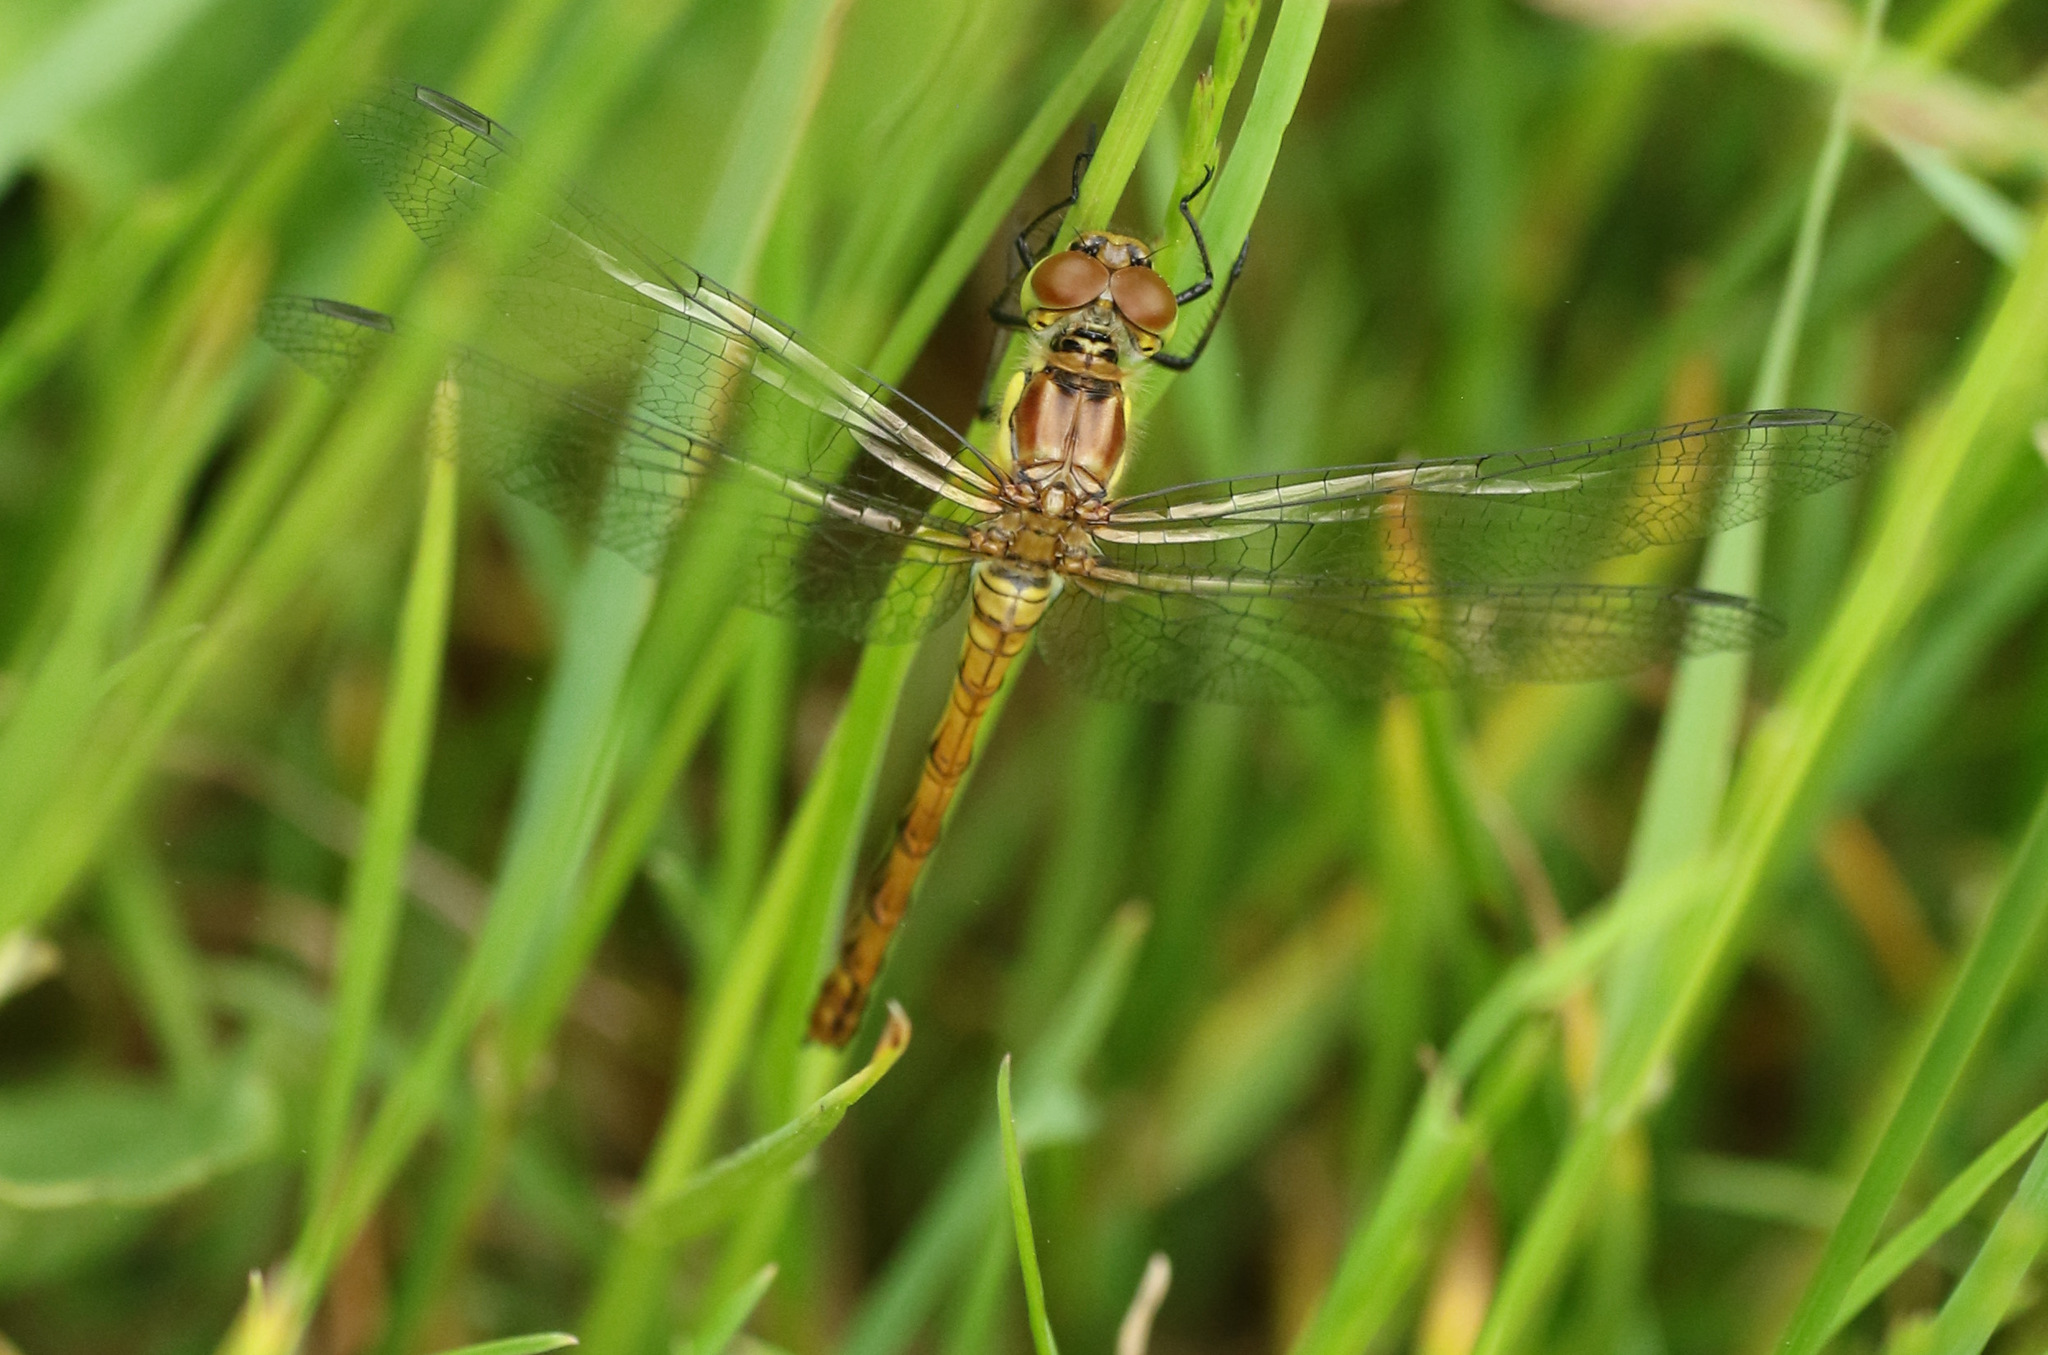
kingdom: Animalia
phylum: Arthropoda
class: Insecta
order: Odonata
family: Libellulidae
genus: Sympetrum
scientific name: Sympetrum striolatum
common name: Common darter
